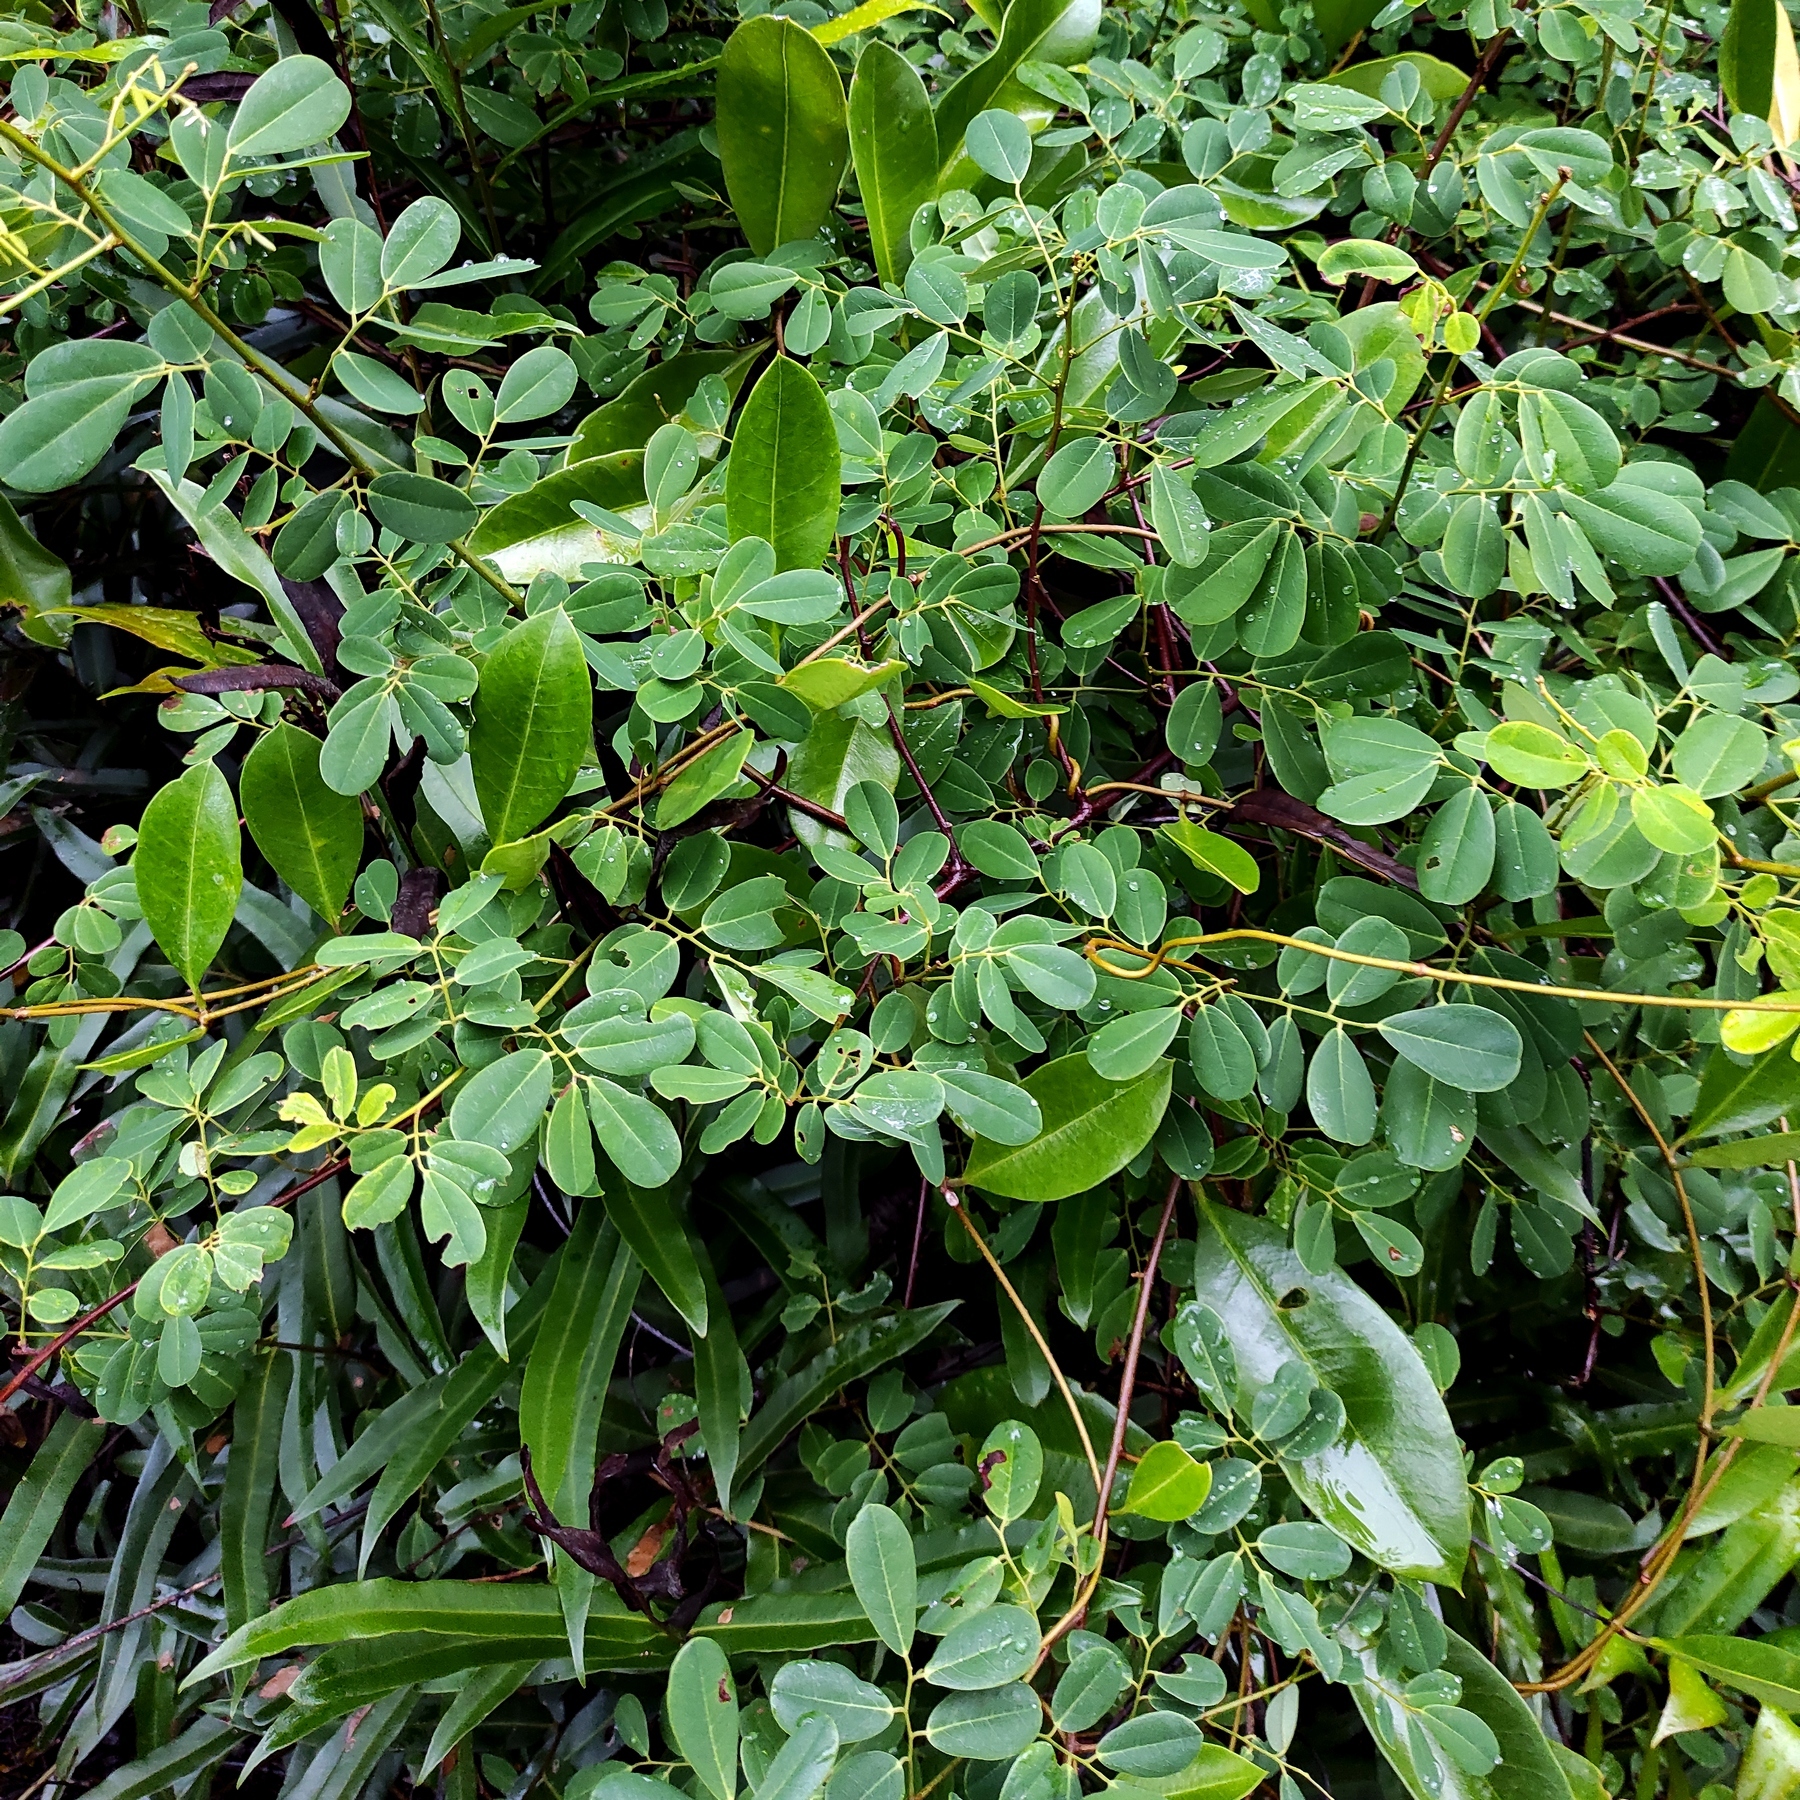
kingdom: Plantae
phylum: Tracheophyta
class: Magnoliopsida
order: Fabales
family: Fabaceae
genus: Dalbergia
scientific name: Dalbergia candenatensis
